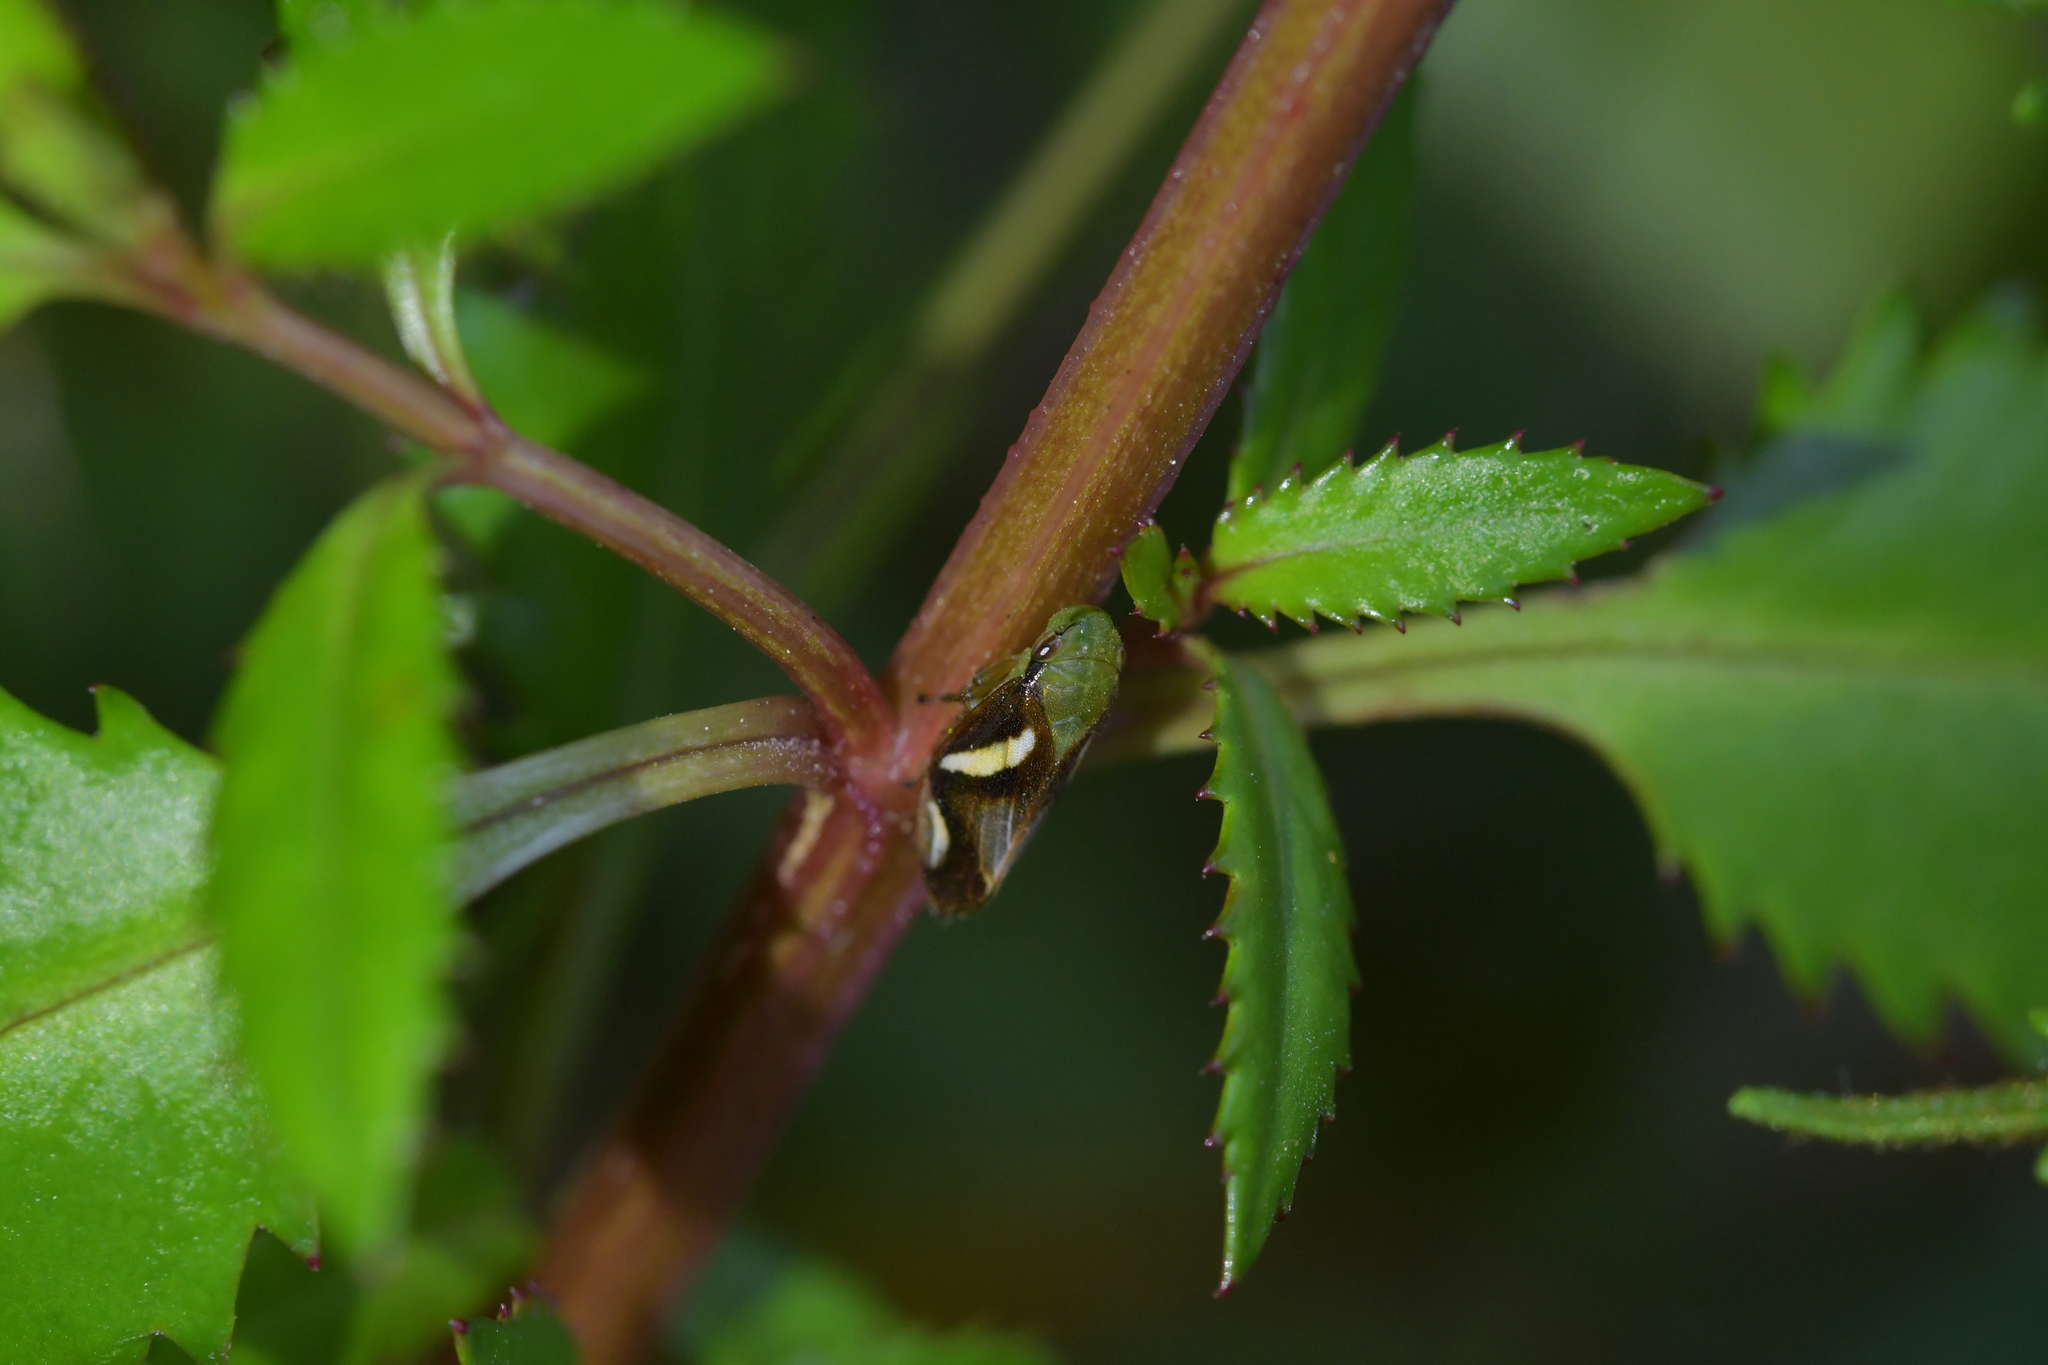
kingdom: Animalia
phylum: Arthropoda
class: Insecta
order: Hemiptera
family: Aphrophoridae
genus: Carystoterpa
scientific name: Carystoterpa fingens
